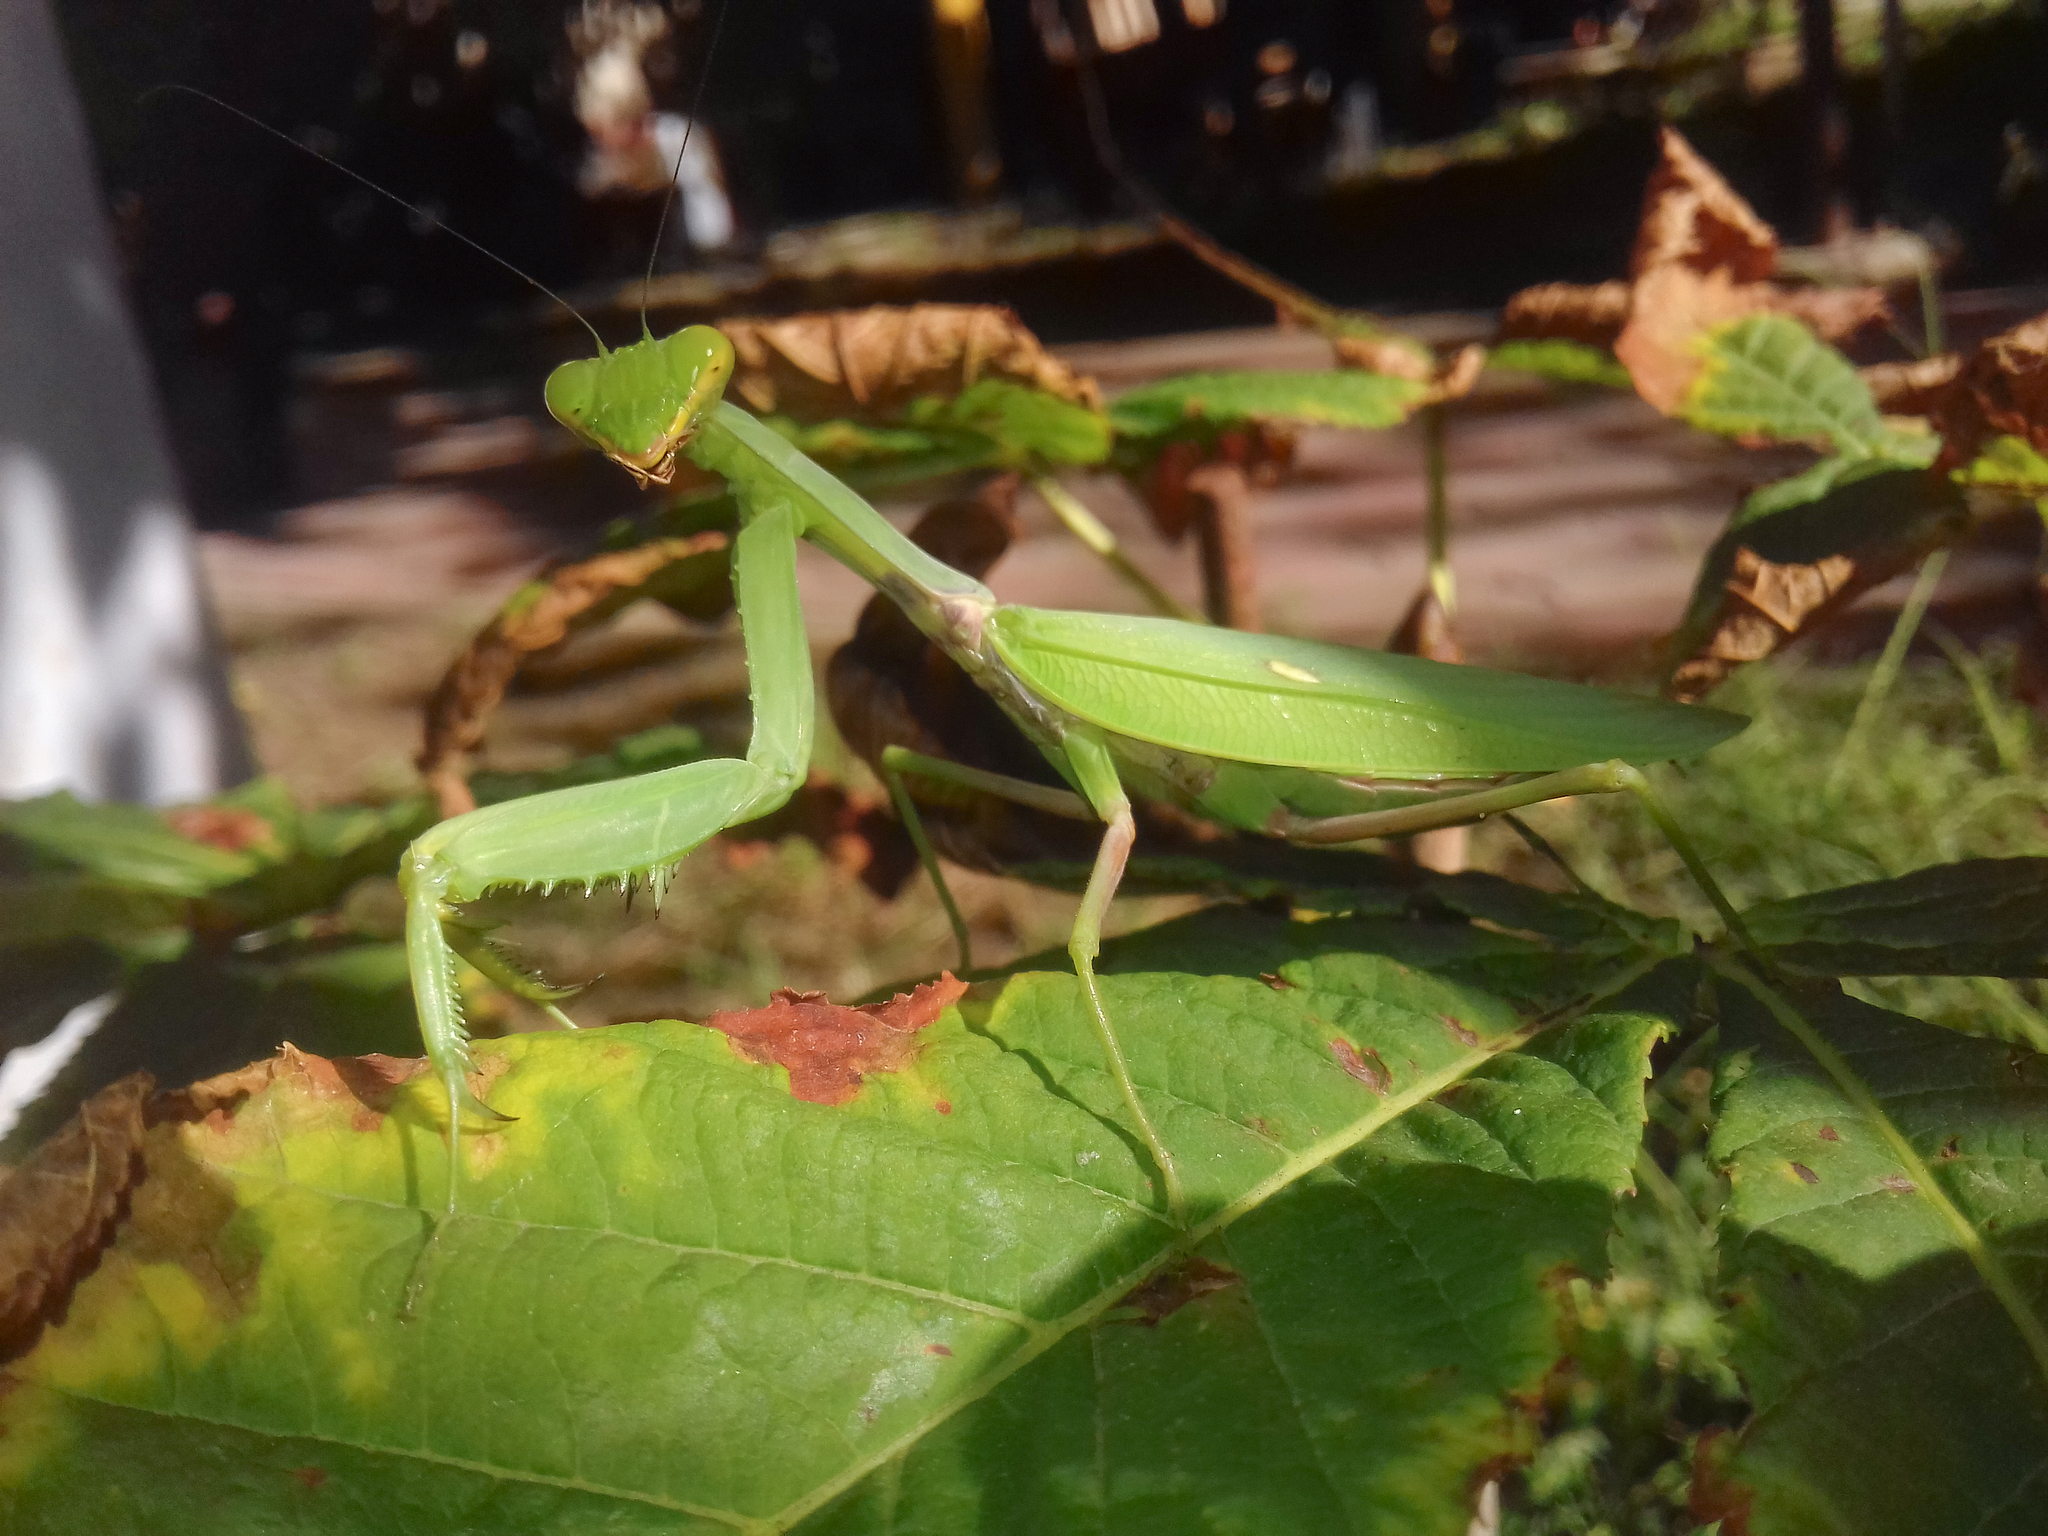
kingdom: Animalia
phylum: Arthropoda
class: Insecta
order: Mantodea
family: Mantidae
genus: Hierodula
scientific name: Hierodula transcaucasica
